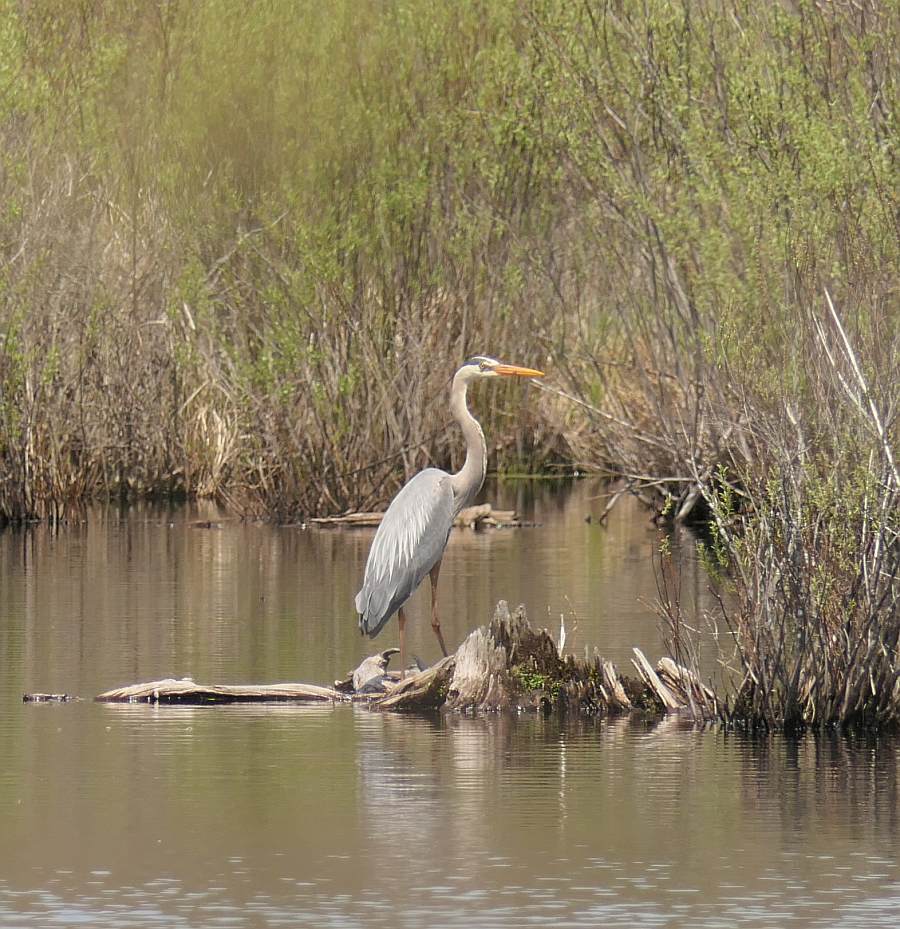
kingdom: Animalia
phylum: Chordata
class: Aves
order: Pelecaniformes
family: Ardeidae
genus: Ardea
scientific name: Ardea herodias
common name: Great blue heron
